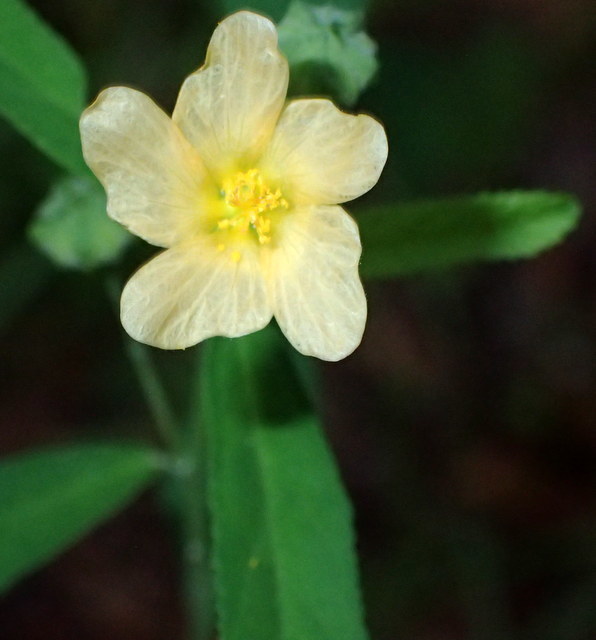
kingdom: Plantae
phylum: Tracheophyta
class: Magnoliopsida
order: Malvales
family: Malvaceae
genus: Sida
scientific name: Sida rhombifolia
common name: Queensland-hemp
